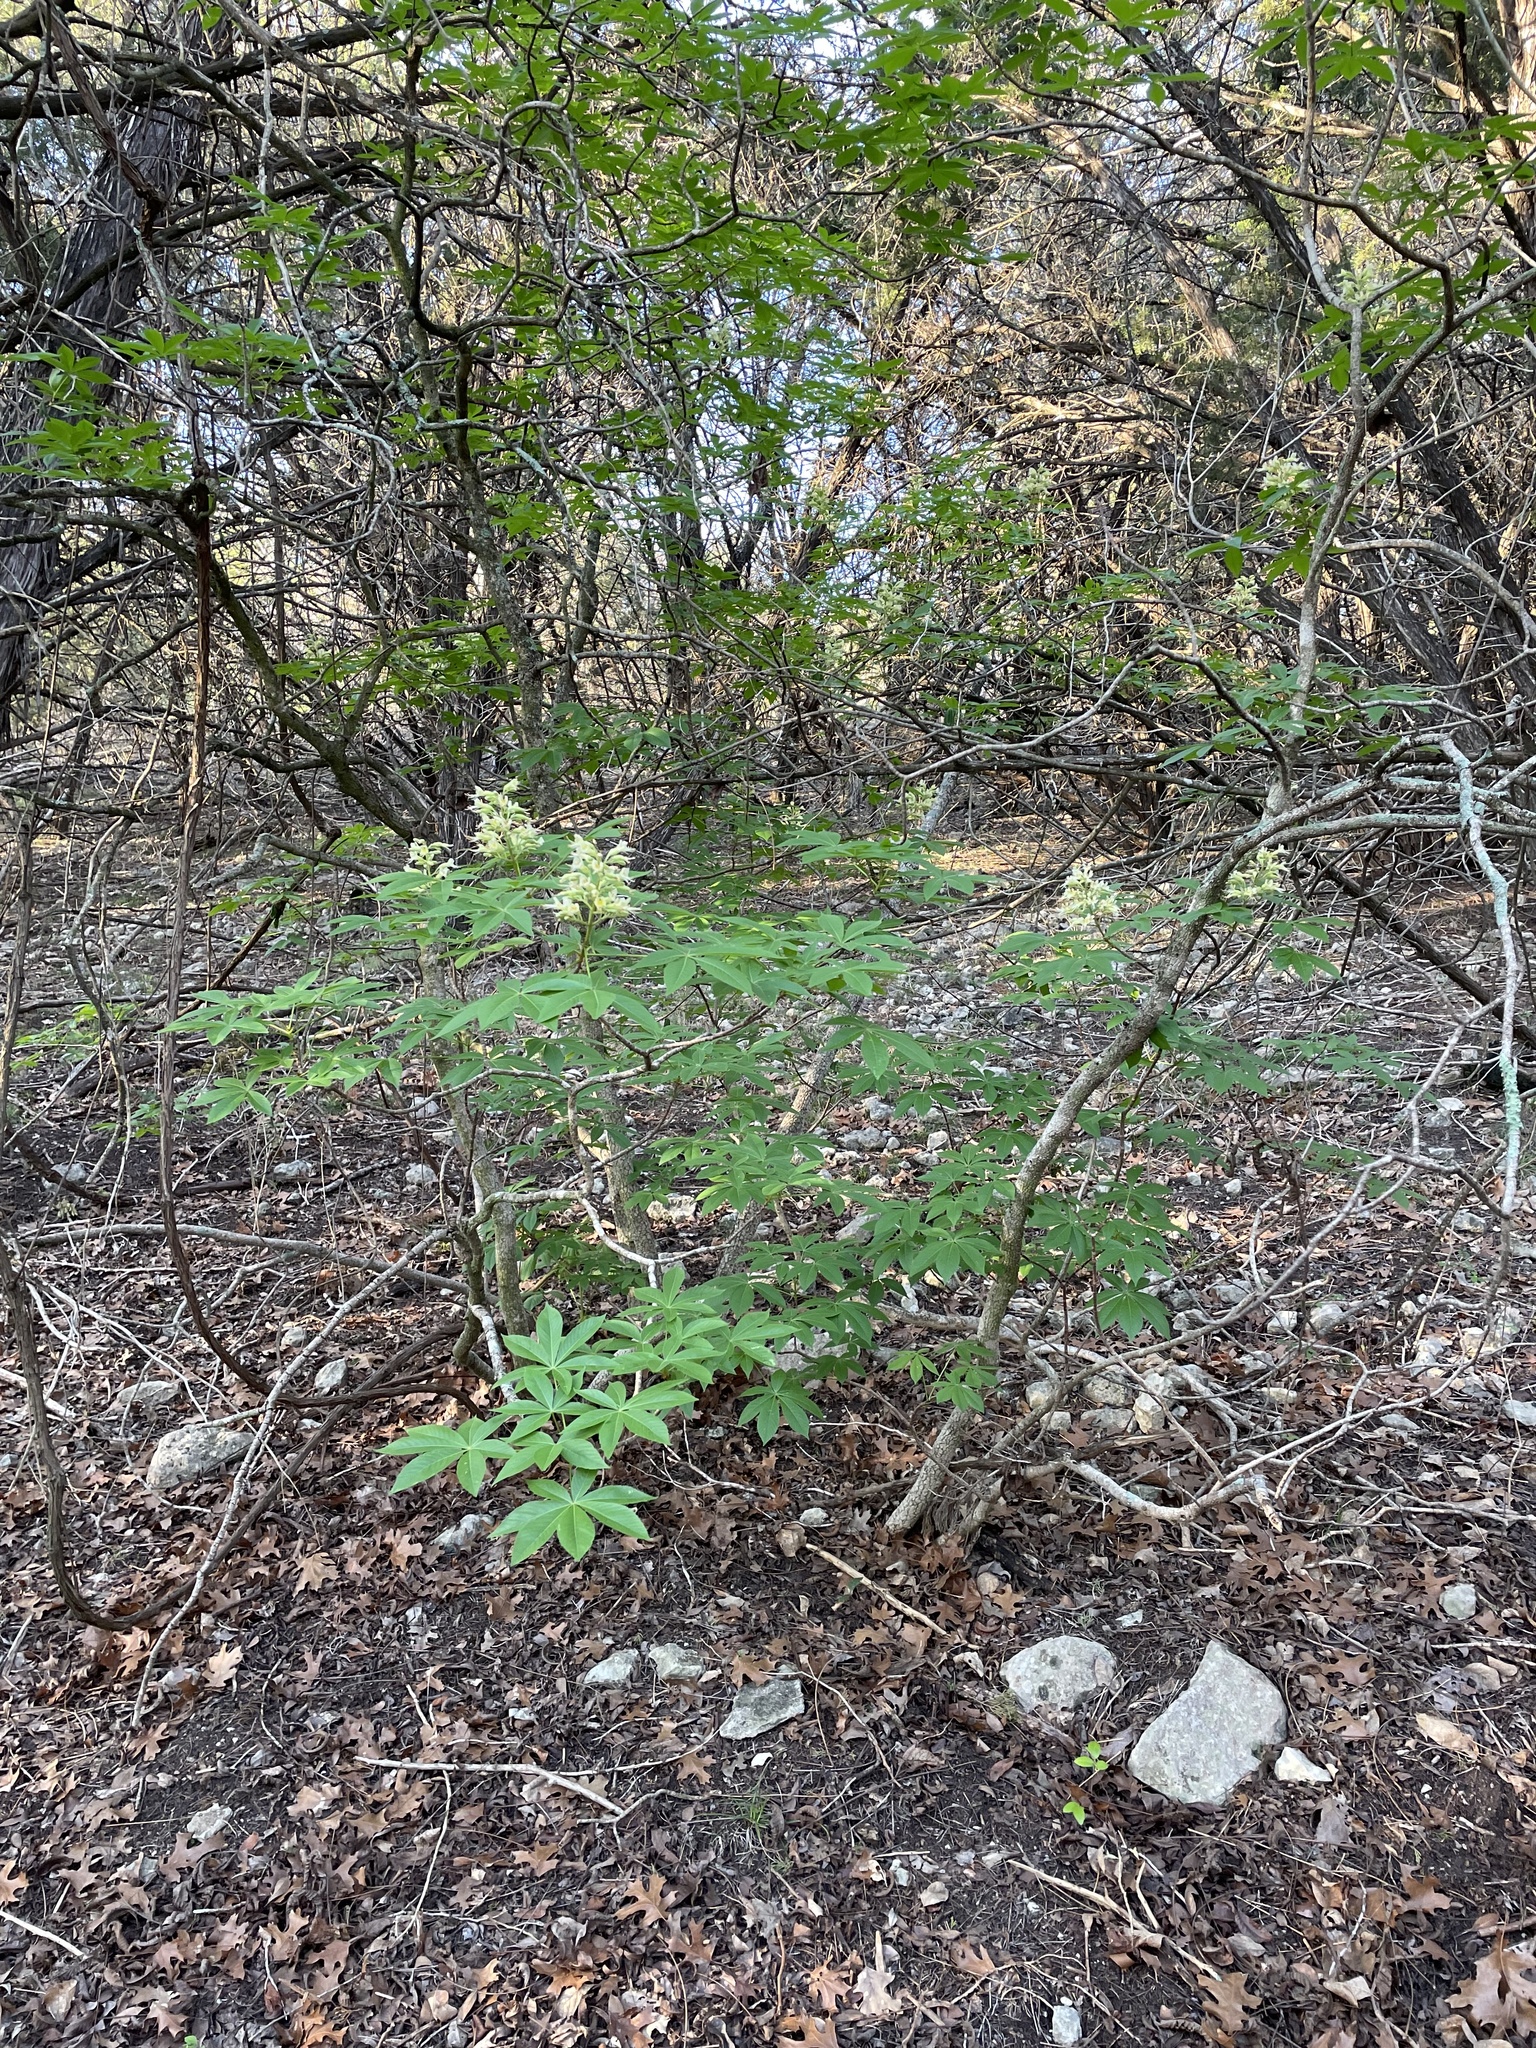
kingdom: Plantae
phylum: Tracheophyta
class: Magnoliopsida
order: Sapindales
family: Sapindaceae
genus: Aesculus
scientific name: Aesculus glabra
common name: Ohio buckeye
